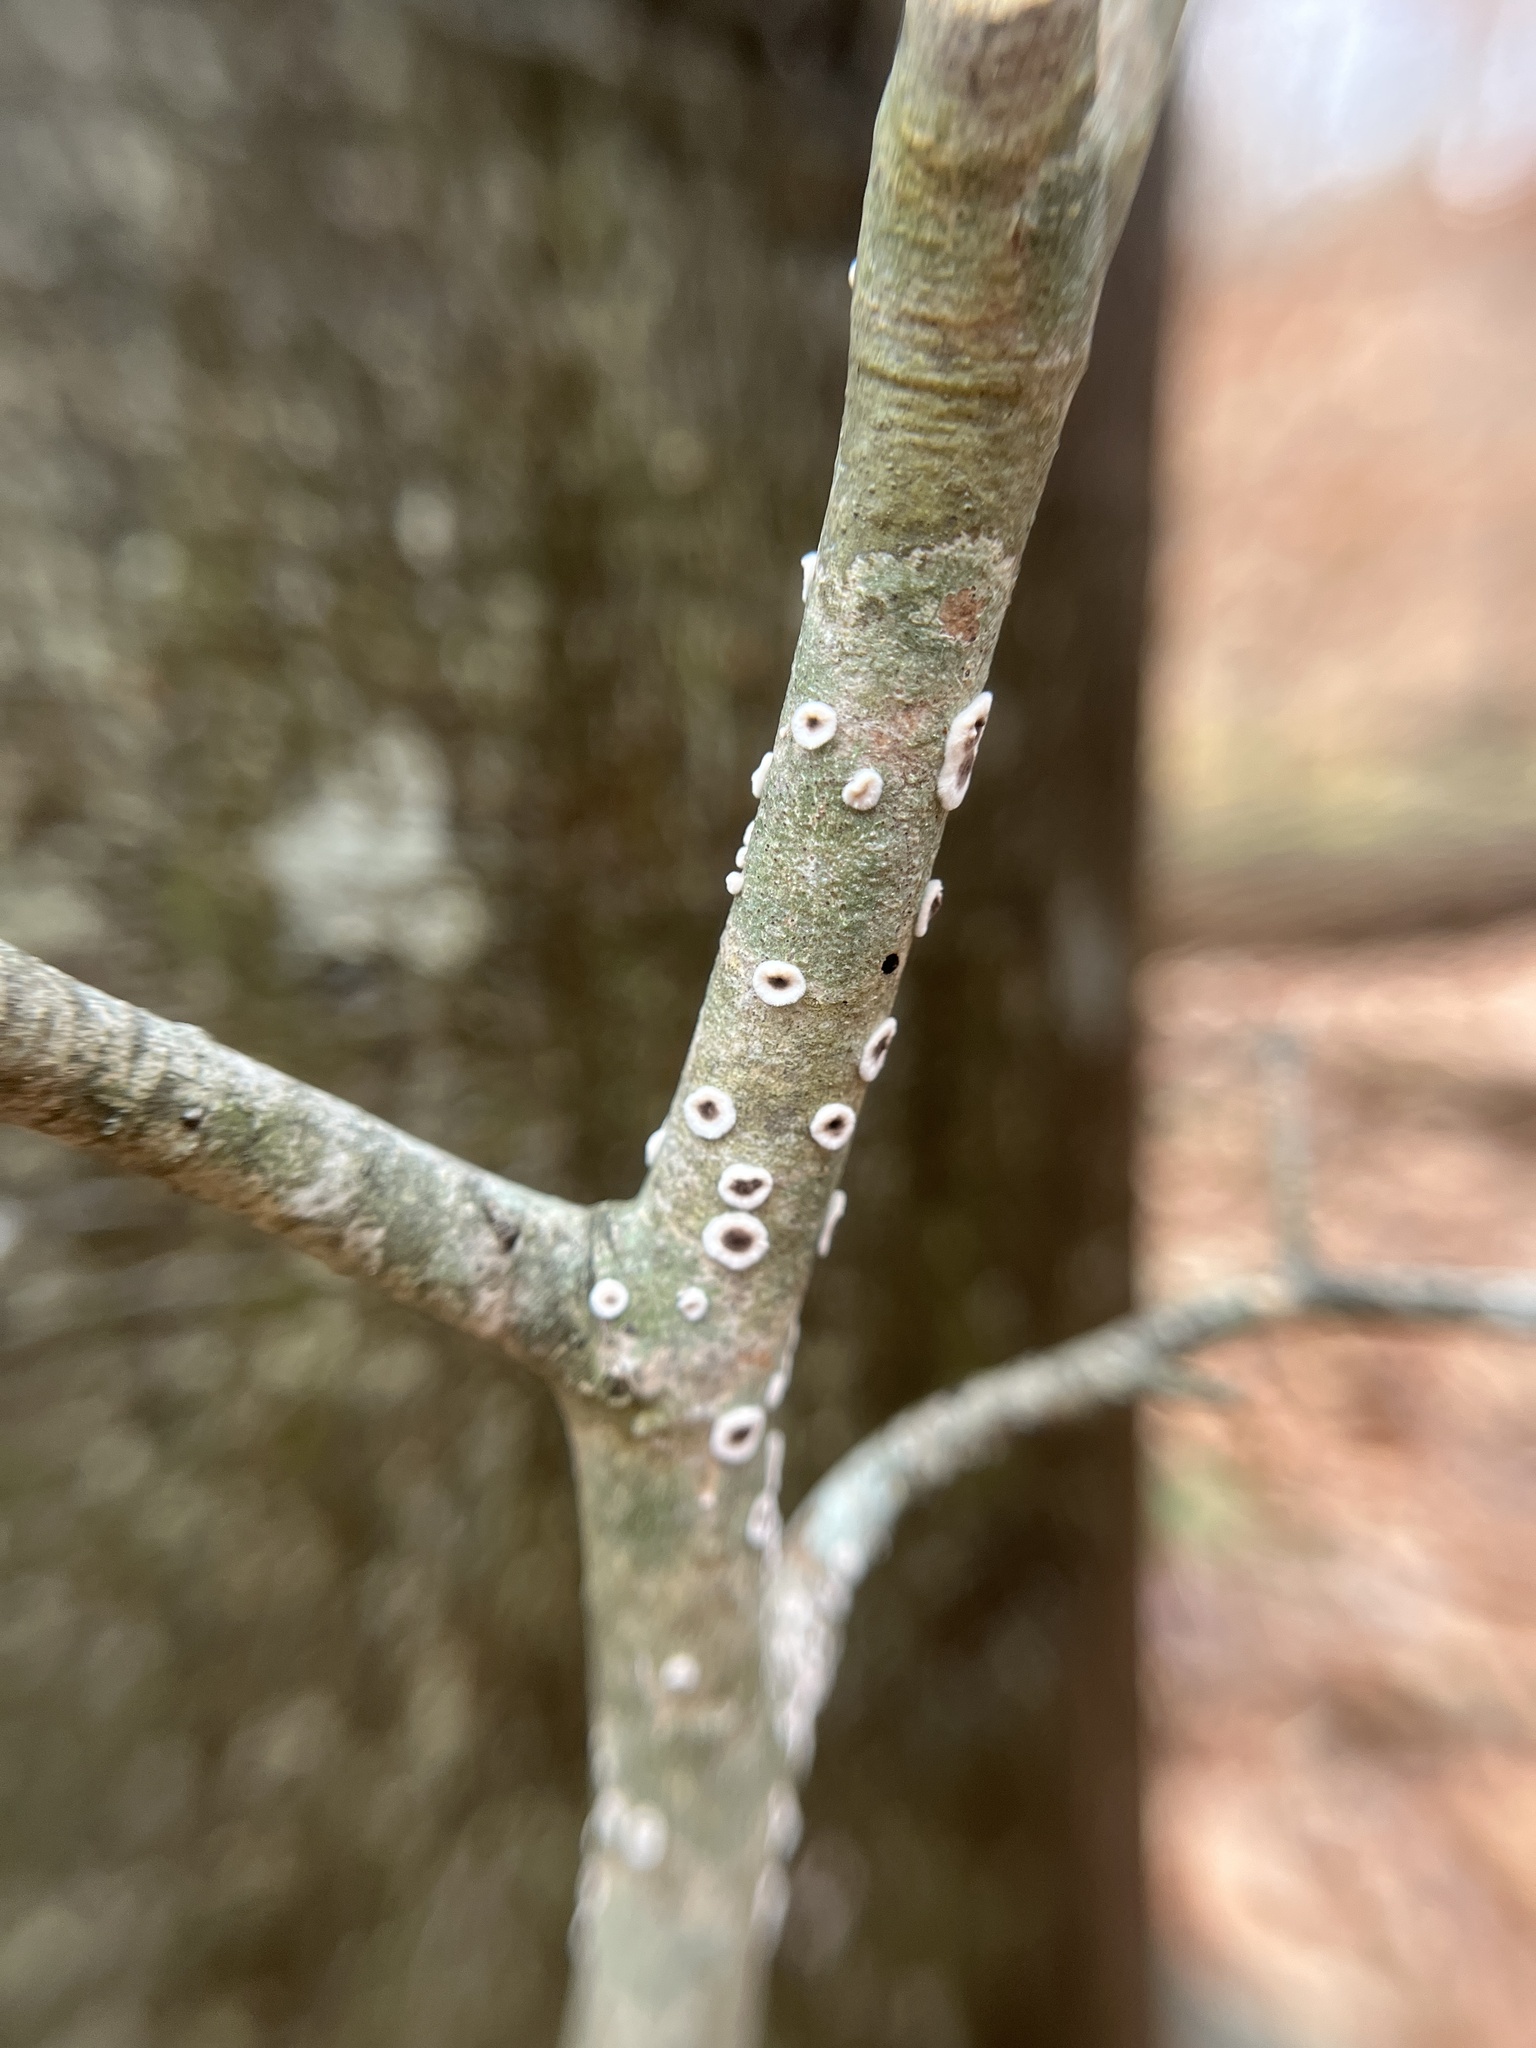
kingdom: Fungi
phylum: Basidiomycota
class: Agaricomycetes
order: Russulales
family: Peniophoraceae
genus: Peniophora
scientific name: Peniophora albobadia
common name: Giraffe spots
